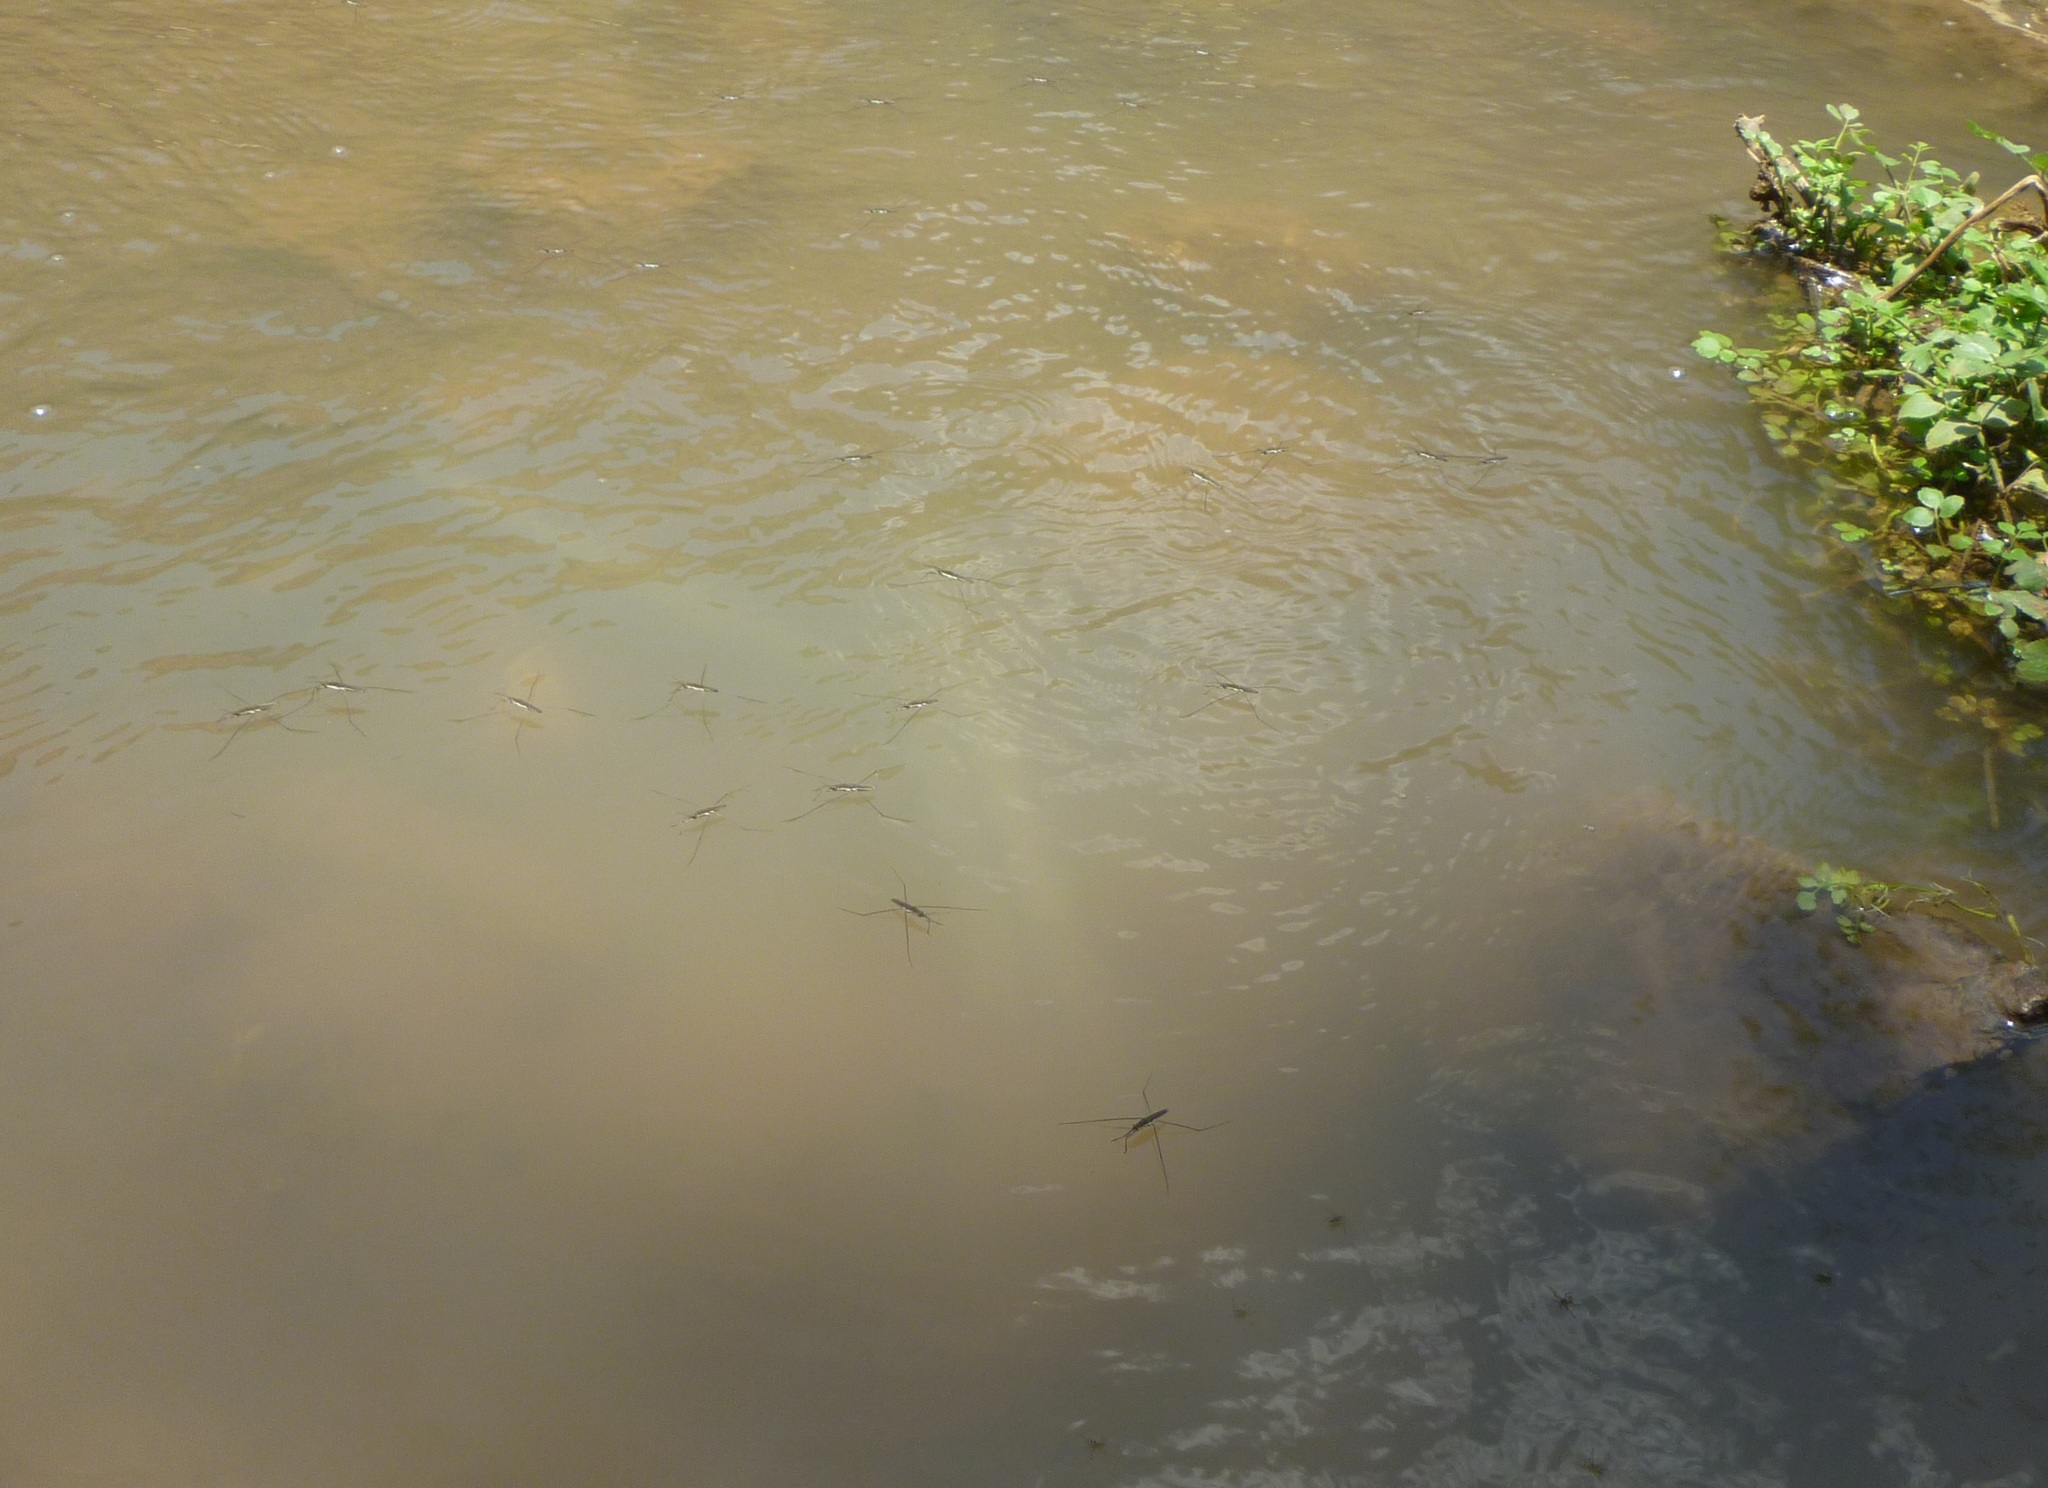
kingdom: Animalia
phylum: Arthropoda
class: Insecta
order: Hemiptera
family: Gerridae
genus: Aquarius
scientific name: Aquarius
